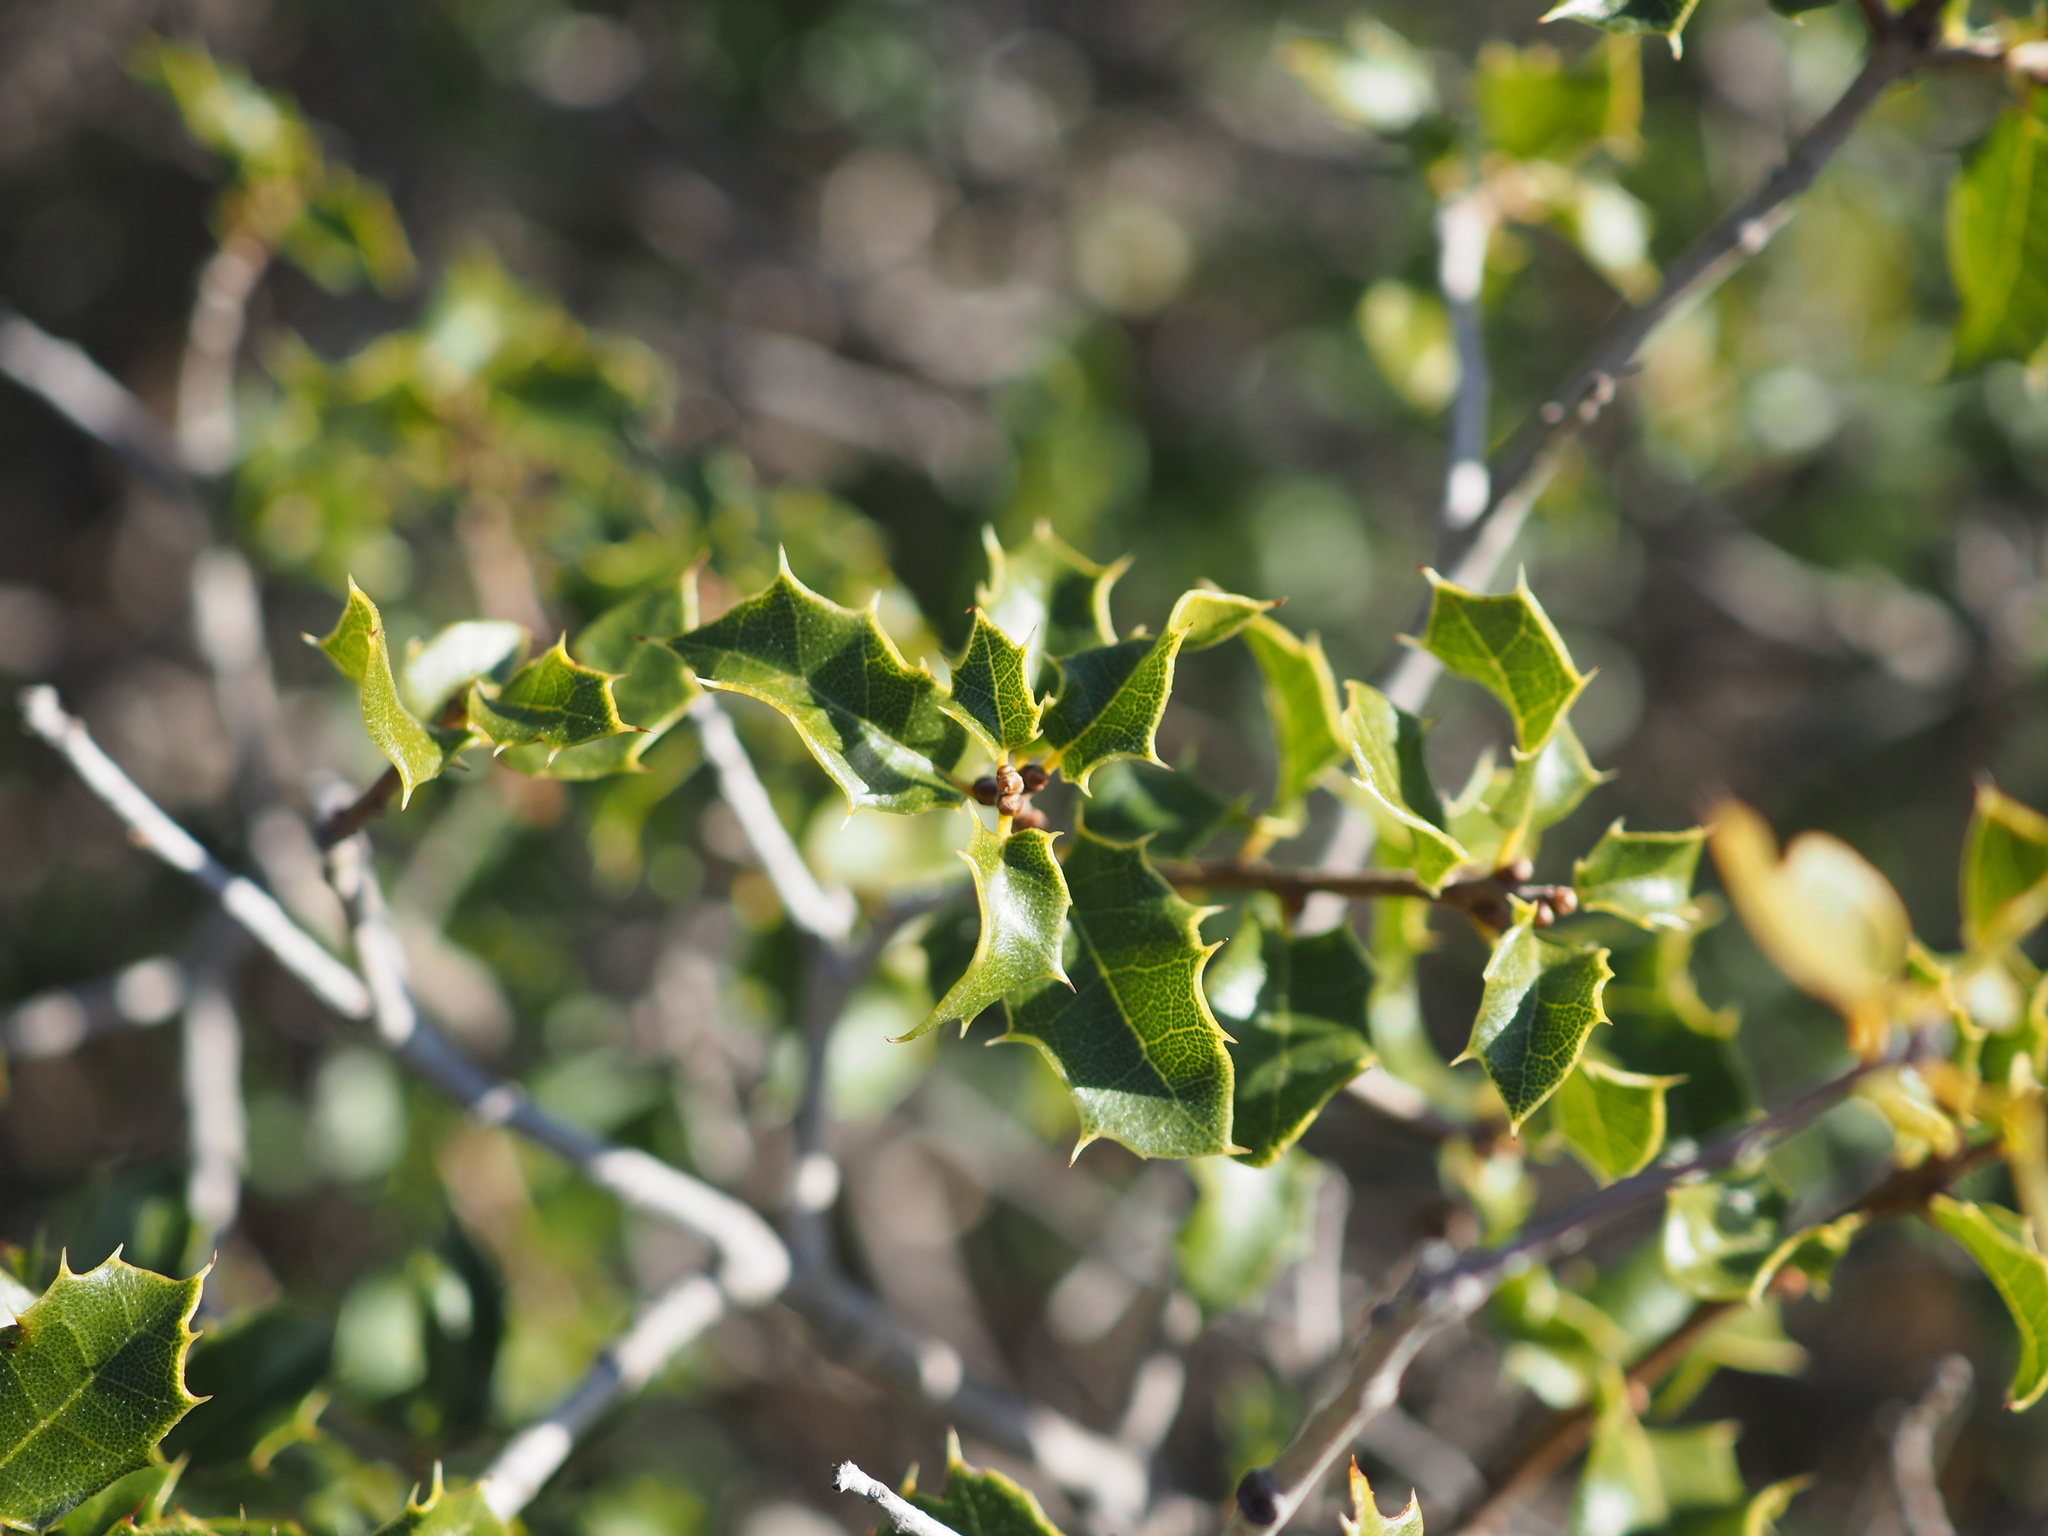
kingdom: Plantae
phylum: Tracheophyta
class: Magnoliopsida
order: Fagales
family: Fagaceae
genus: Quercus
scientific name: Quercus coccifera
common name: Kermes oak
